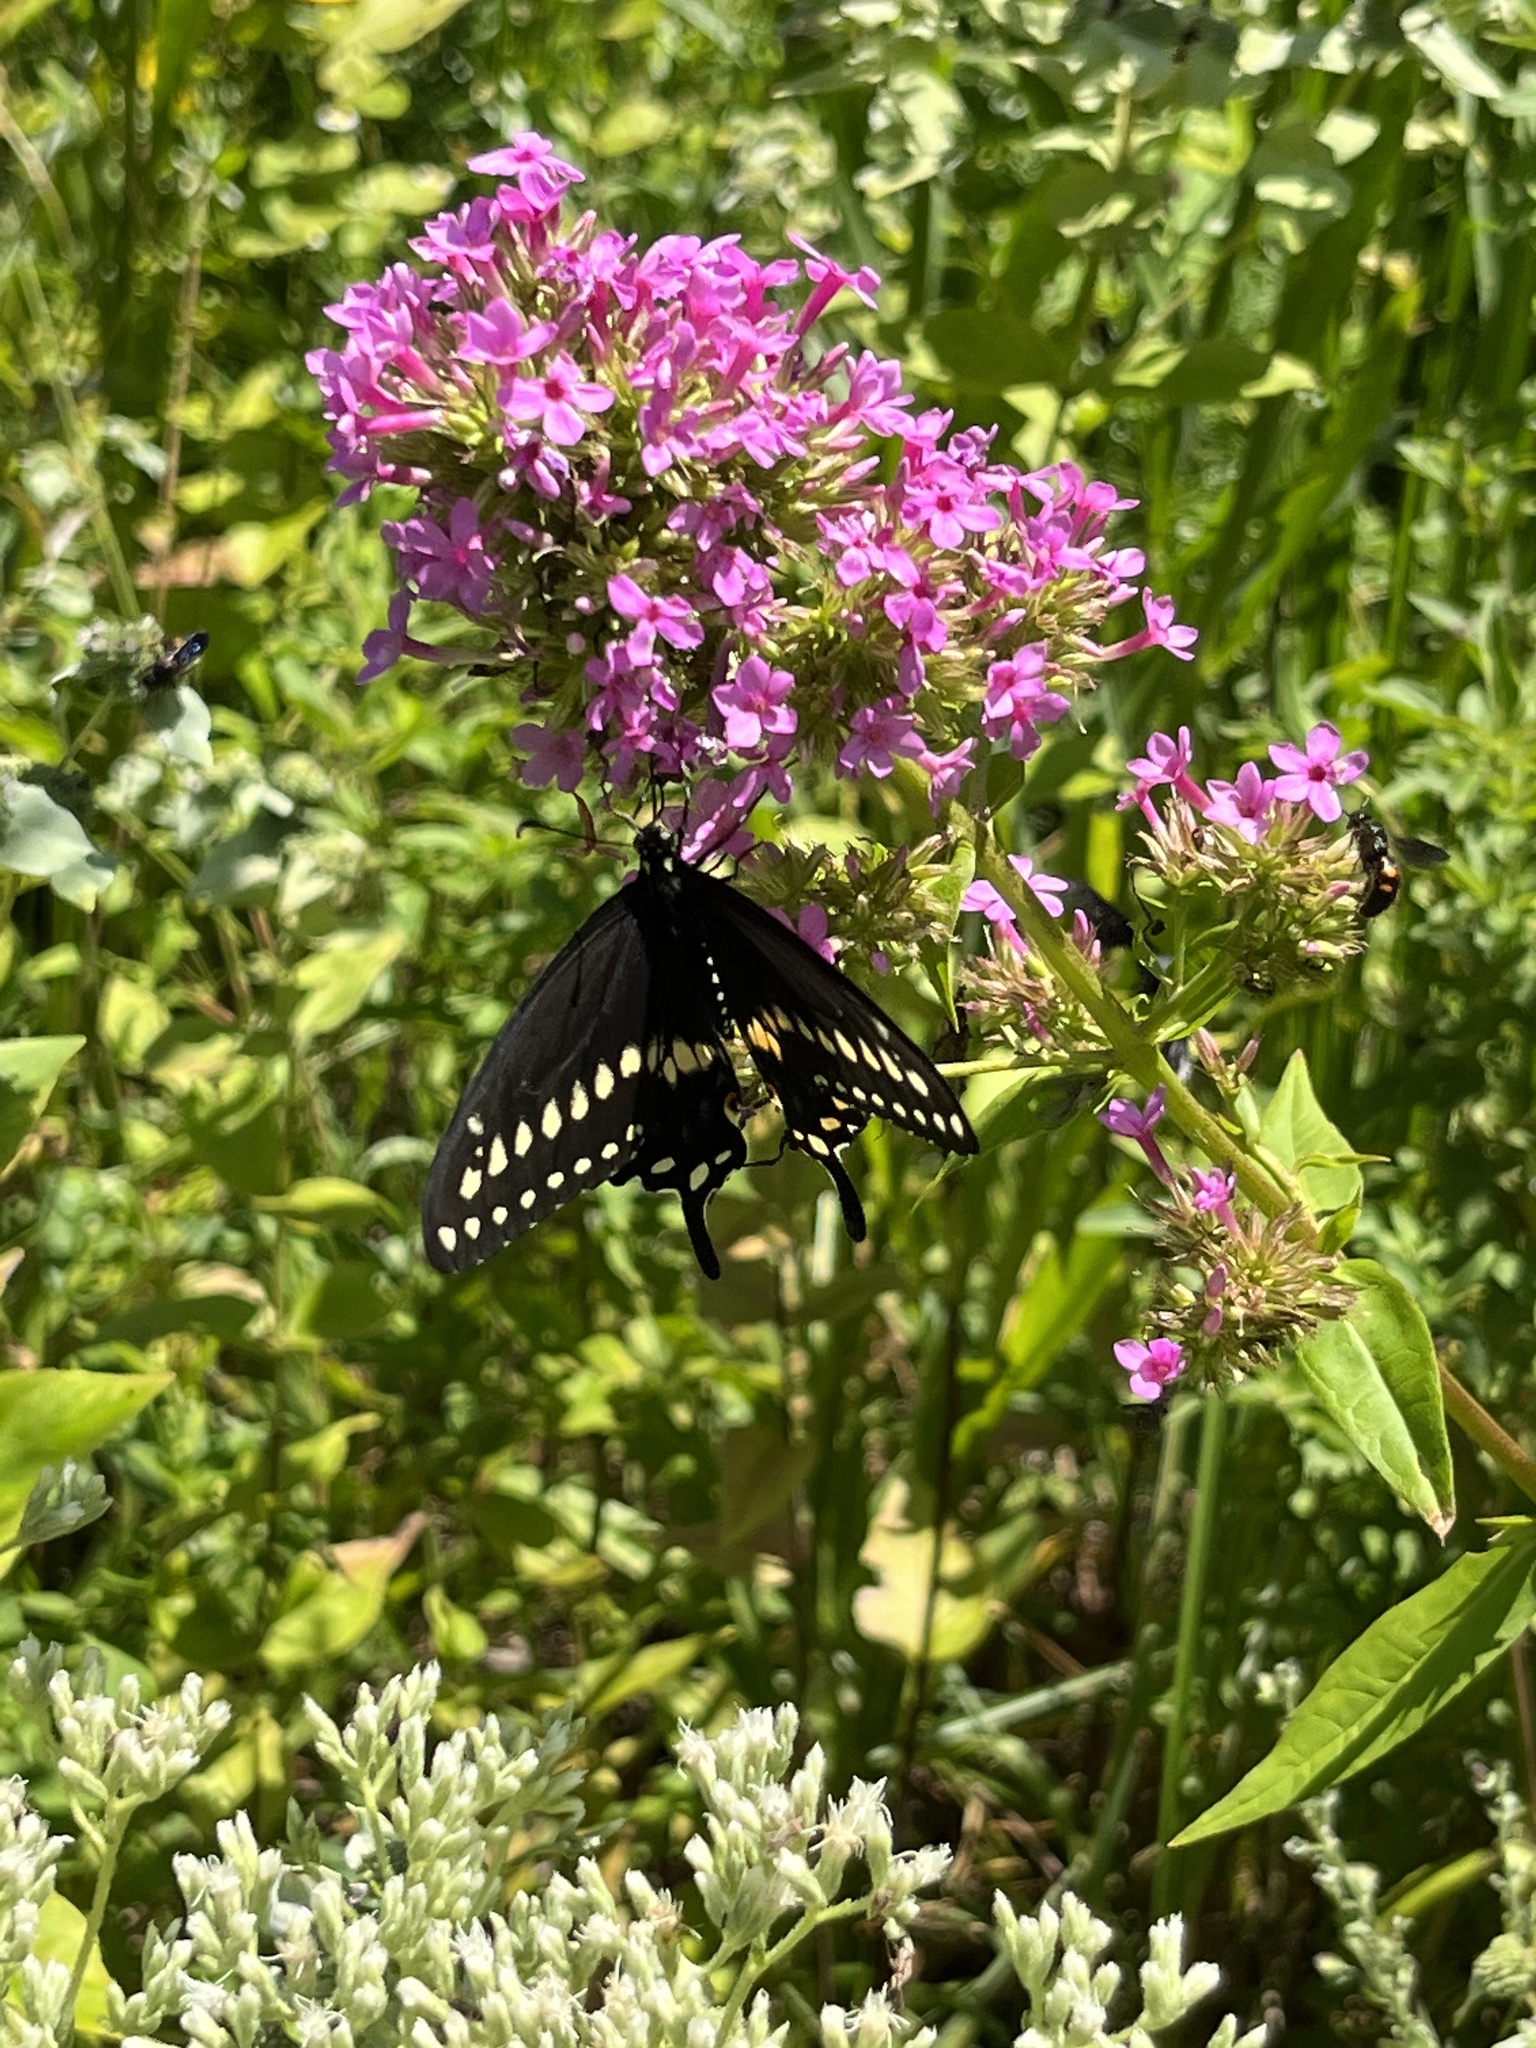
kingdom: Animalia
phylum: Arthropoda
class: Insecta
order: Lepidoptera
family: Papilionidae
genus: Papilio
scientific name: Papilio polyxenes
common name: Black swallowtail
